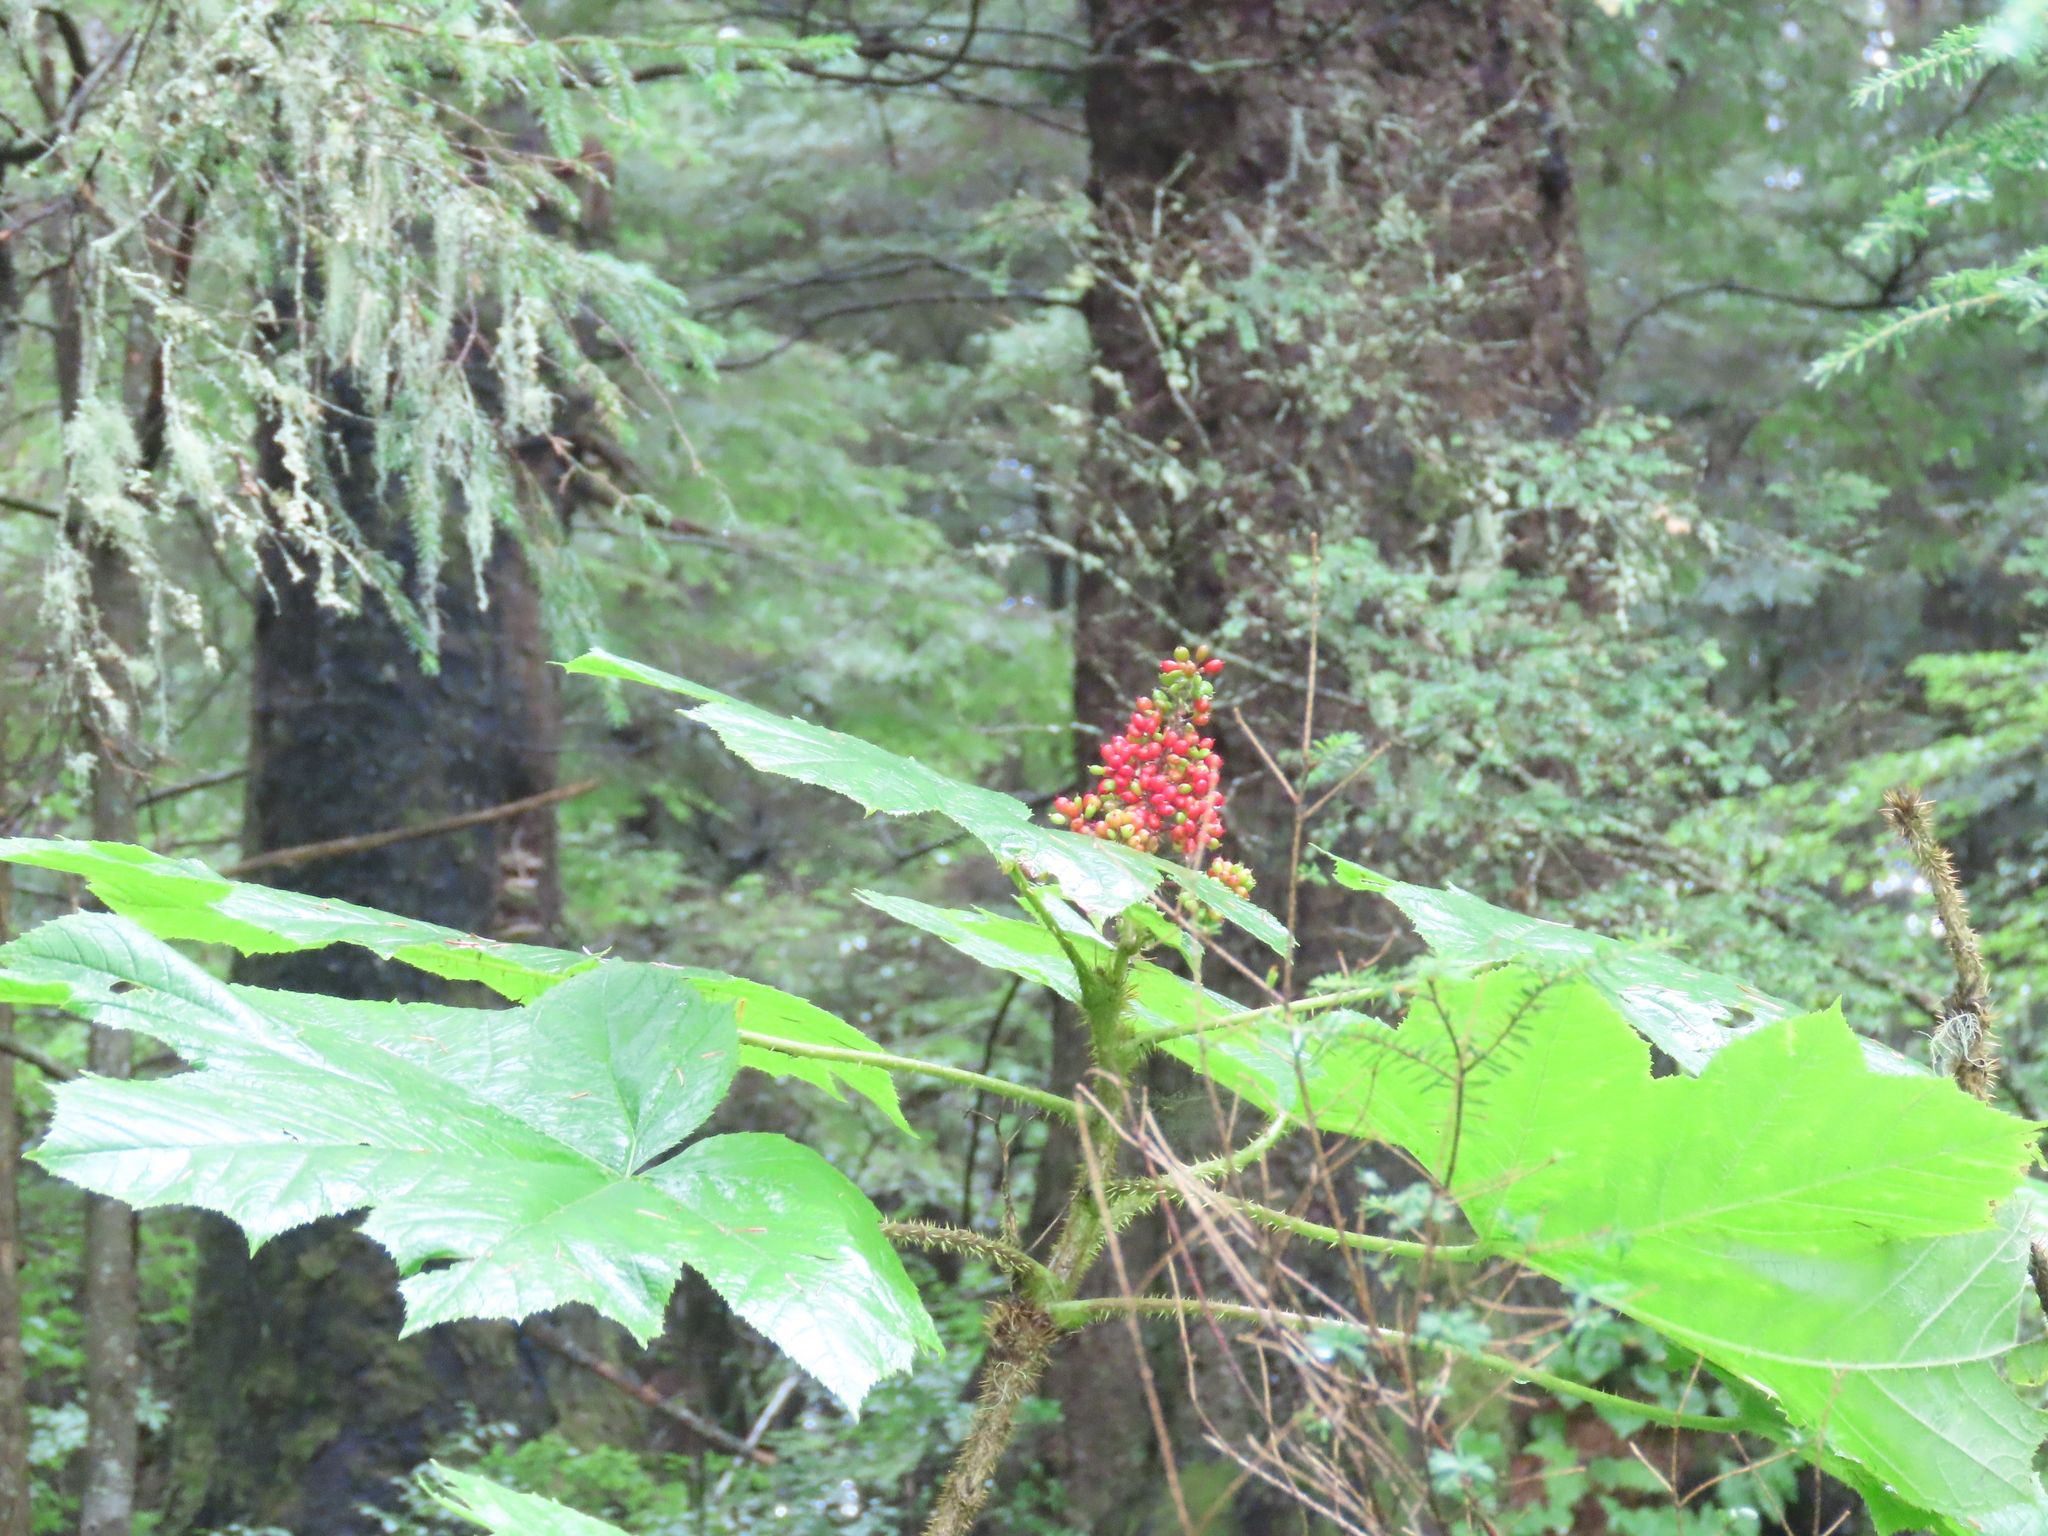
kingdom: Plantae
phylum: Tracheophyta
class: Magnoliopsida
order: Apiales
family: Araliaceae
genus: Oplopanax
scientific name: Oplopanax horridus
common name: Devil's walking-stick
